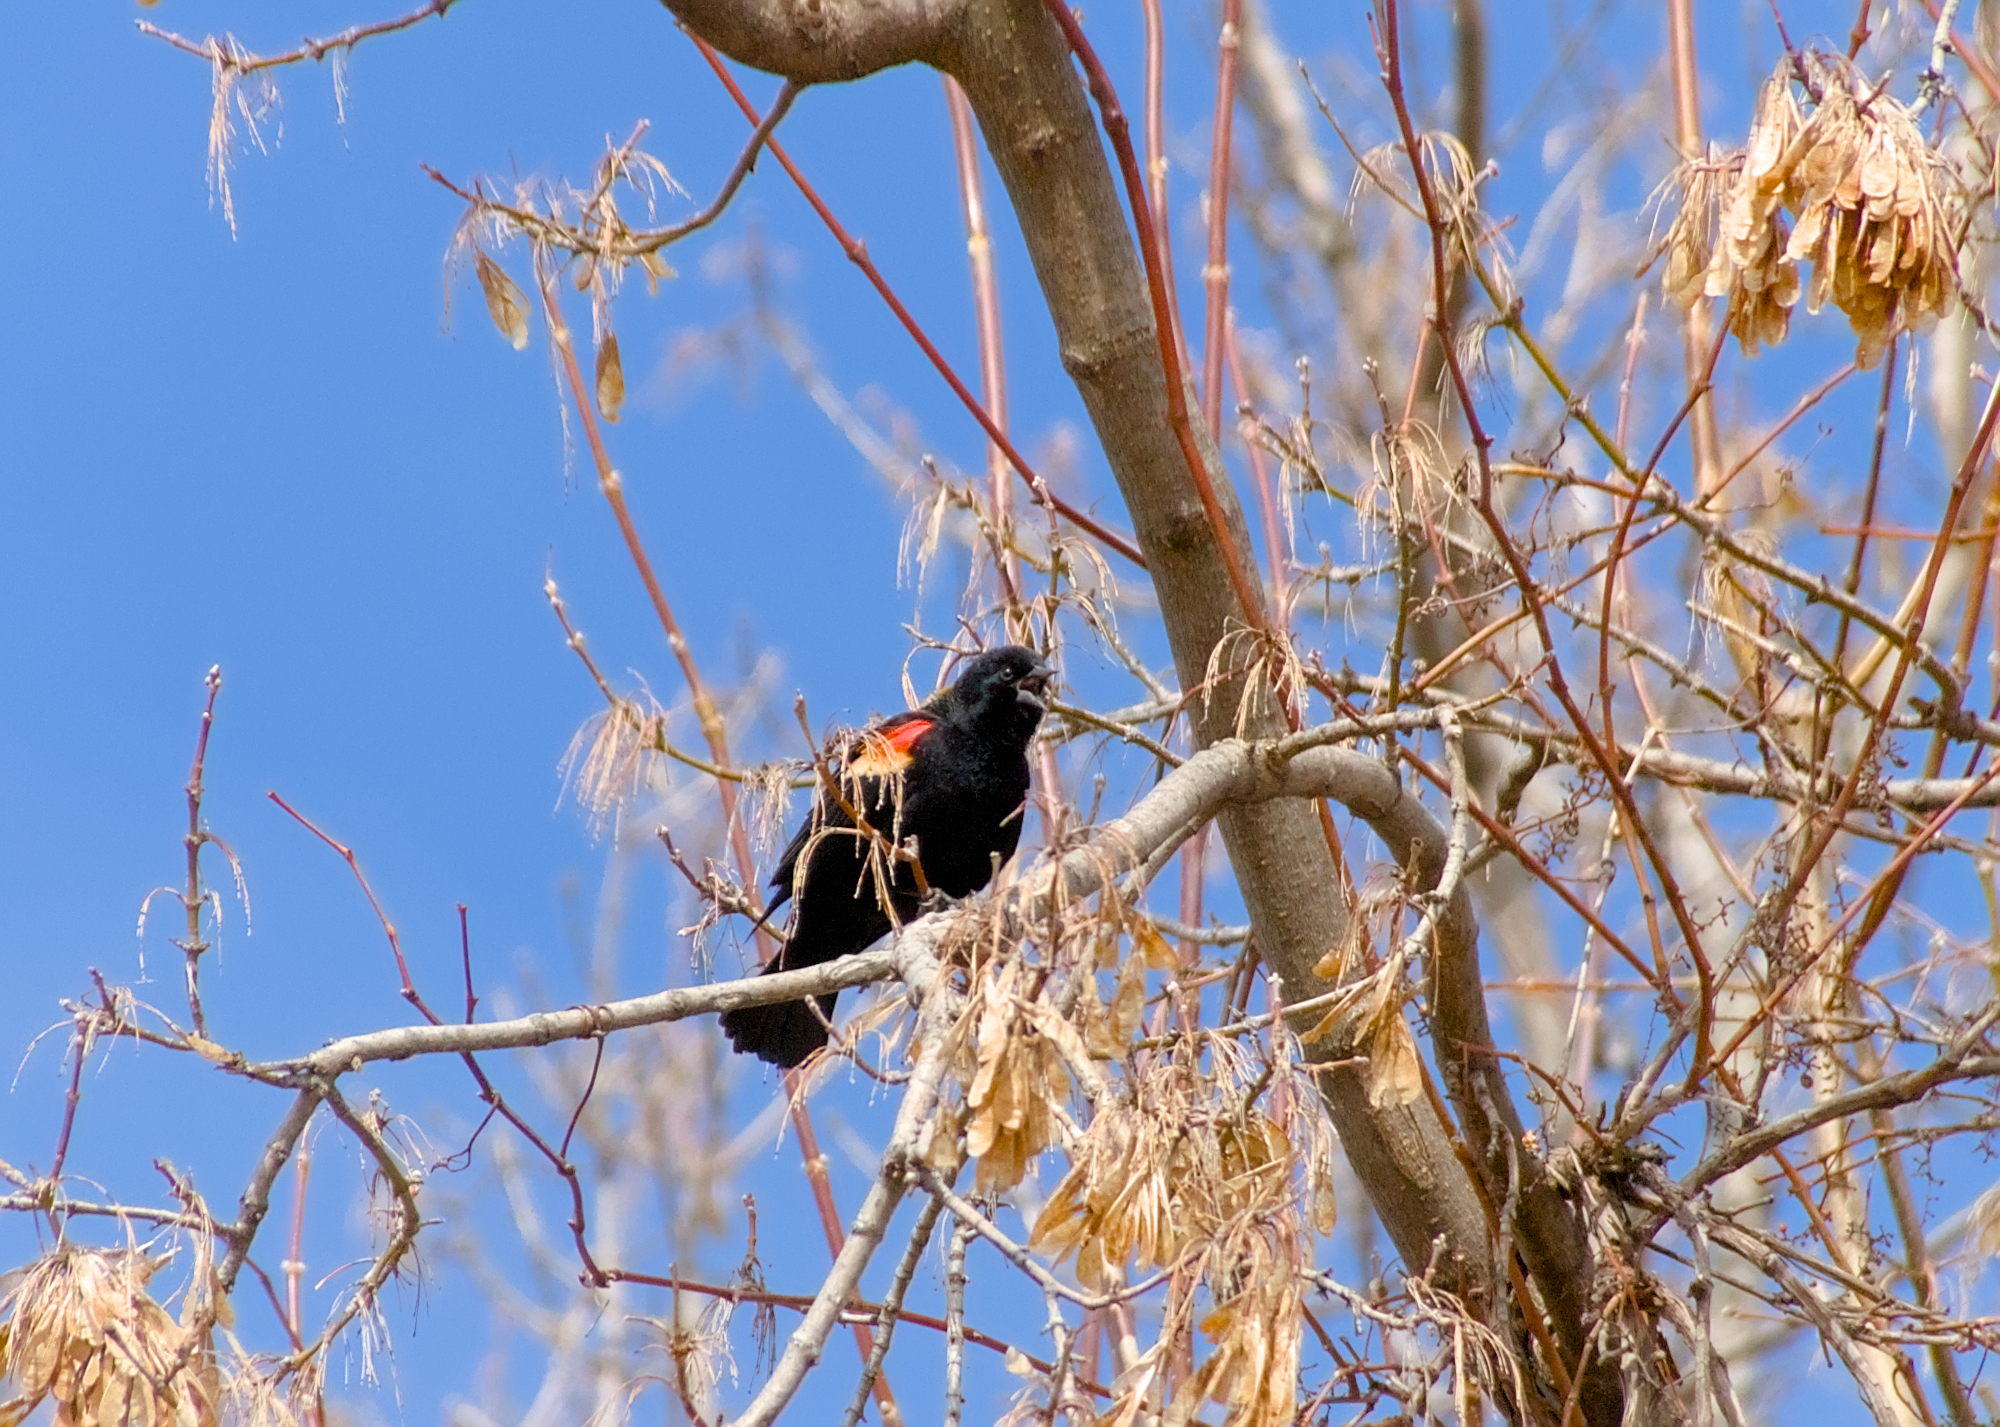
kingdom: Animalia
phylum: Chordata
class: Aves
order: Passeriformes
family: Icteridae
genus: Agelaius
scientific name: Agelaius phoeniceus
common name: Red-winged blackbird
